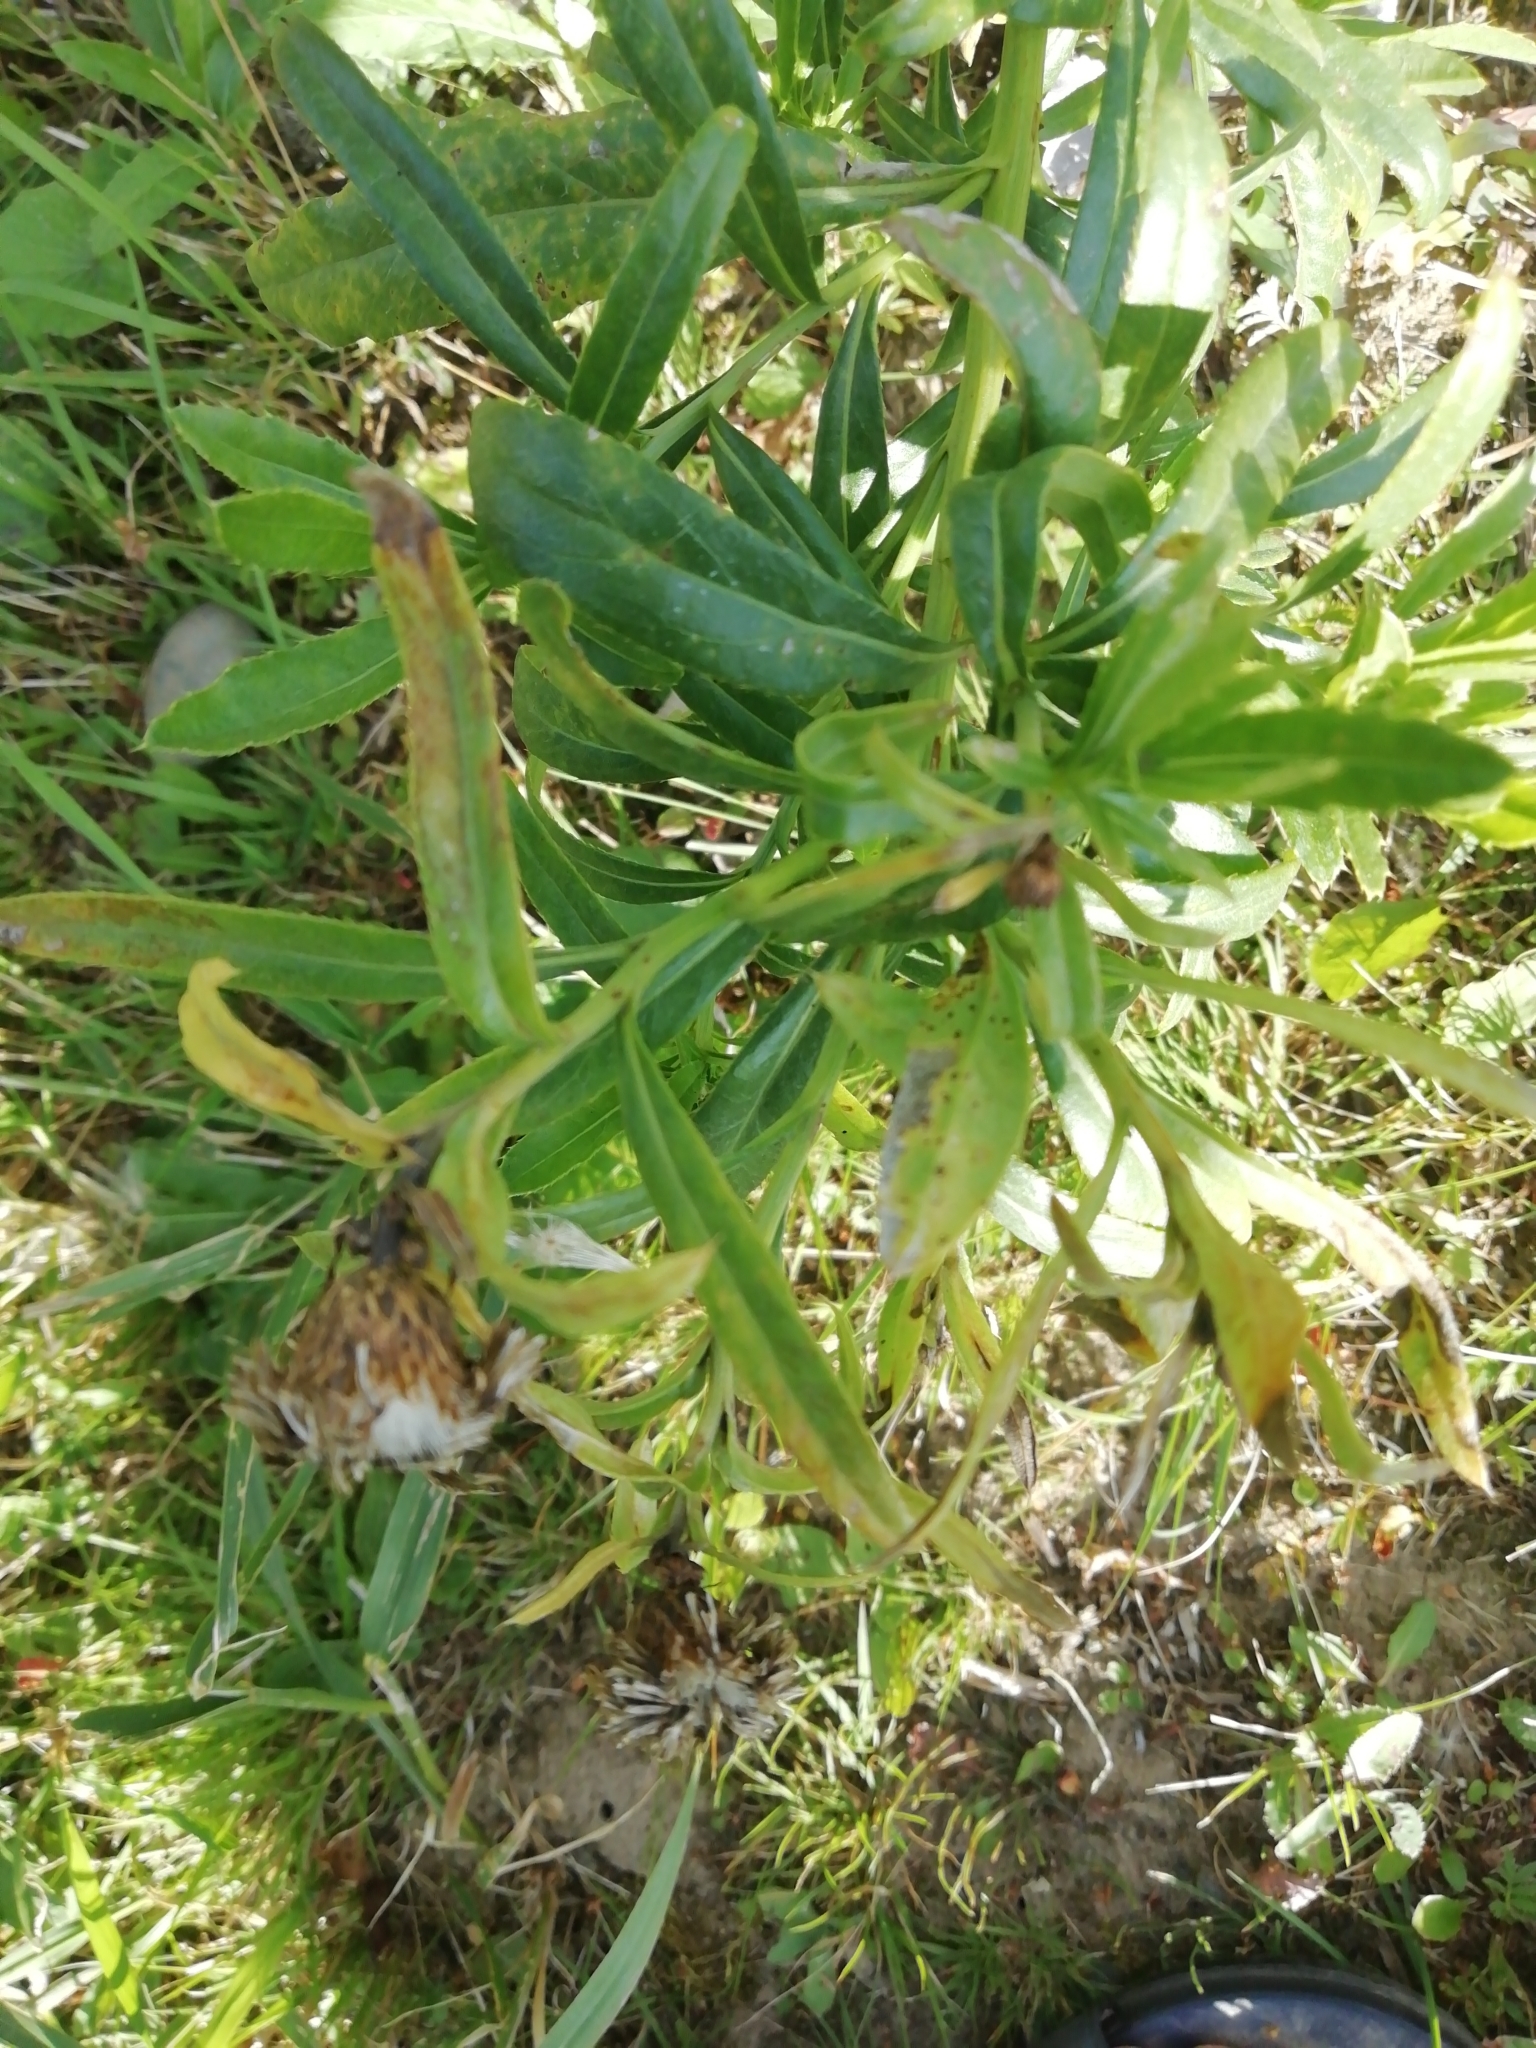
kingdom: Plantae
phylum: Tracheophyta
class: Magnoliopsida
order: Asterales
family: Asteraceae
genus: Cirsium
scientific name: Cirsium arvense
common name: Creeping thistle
